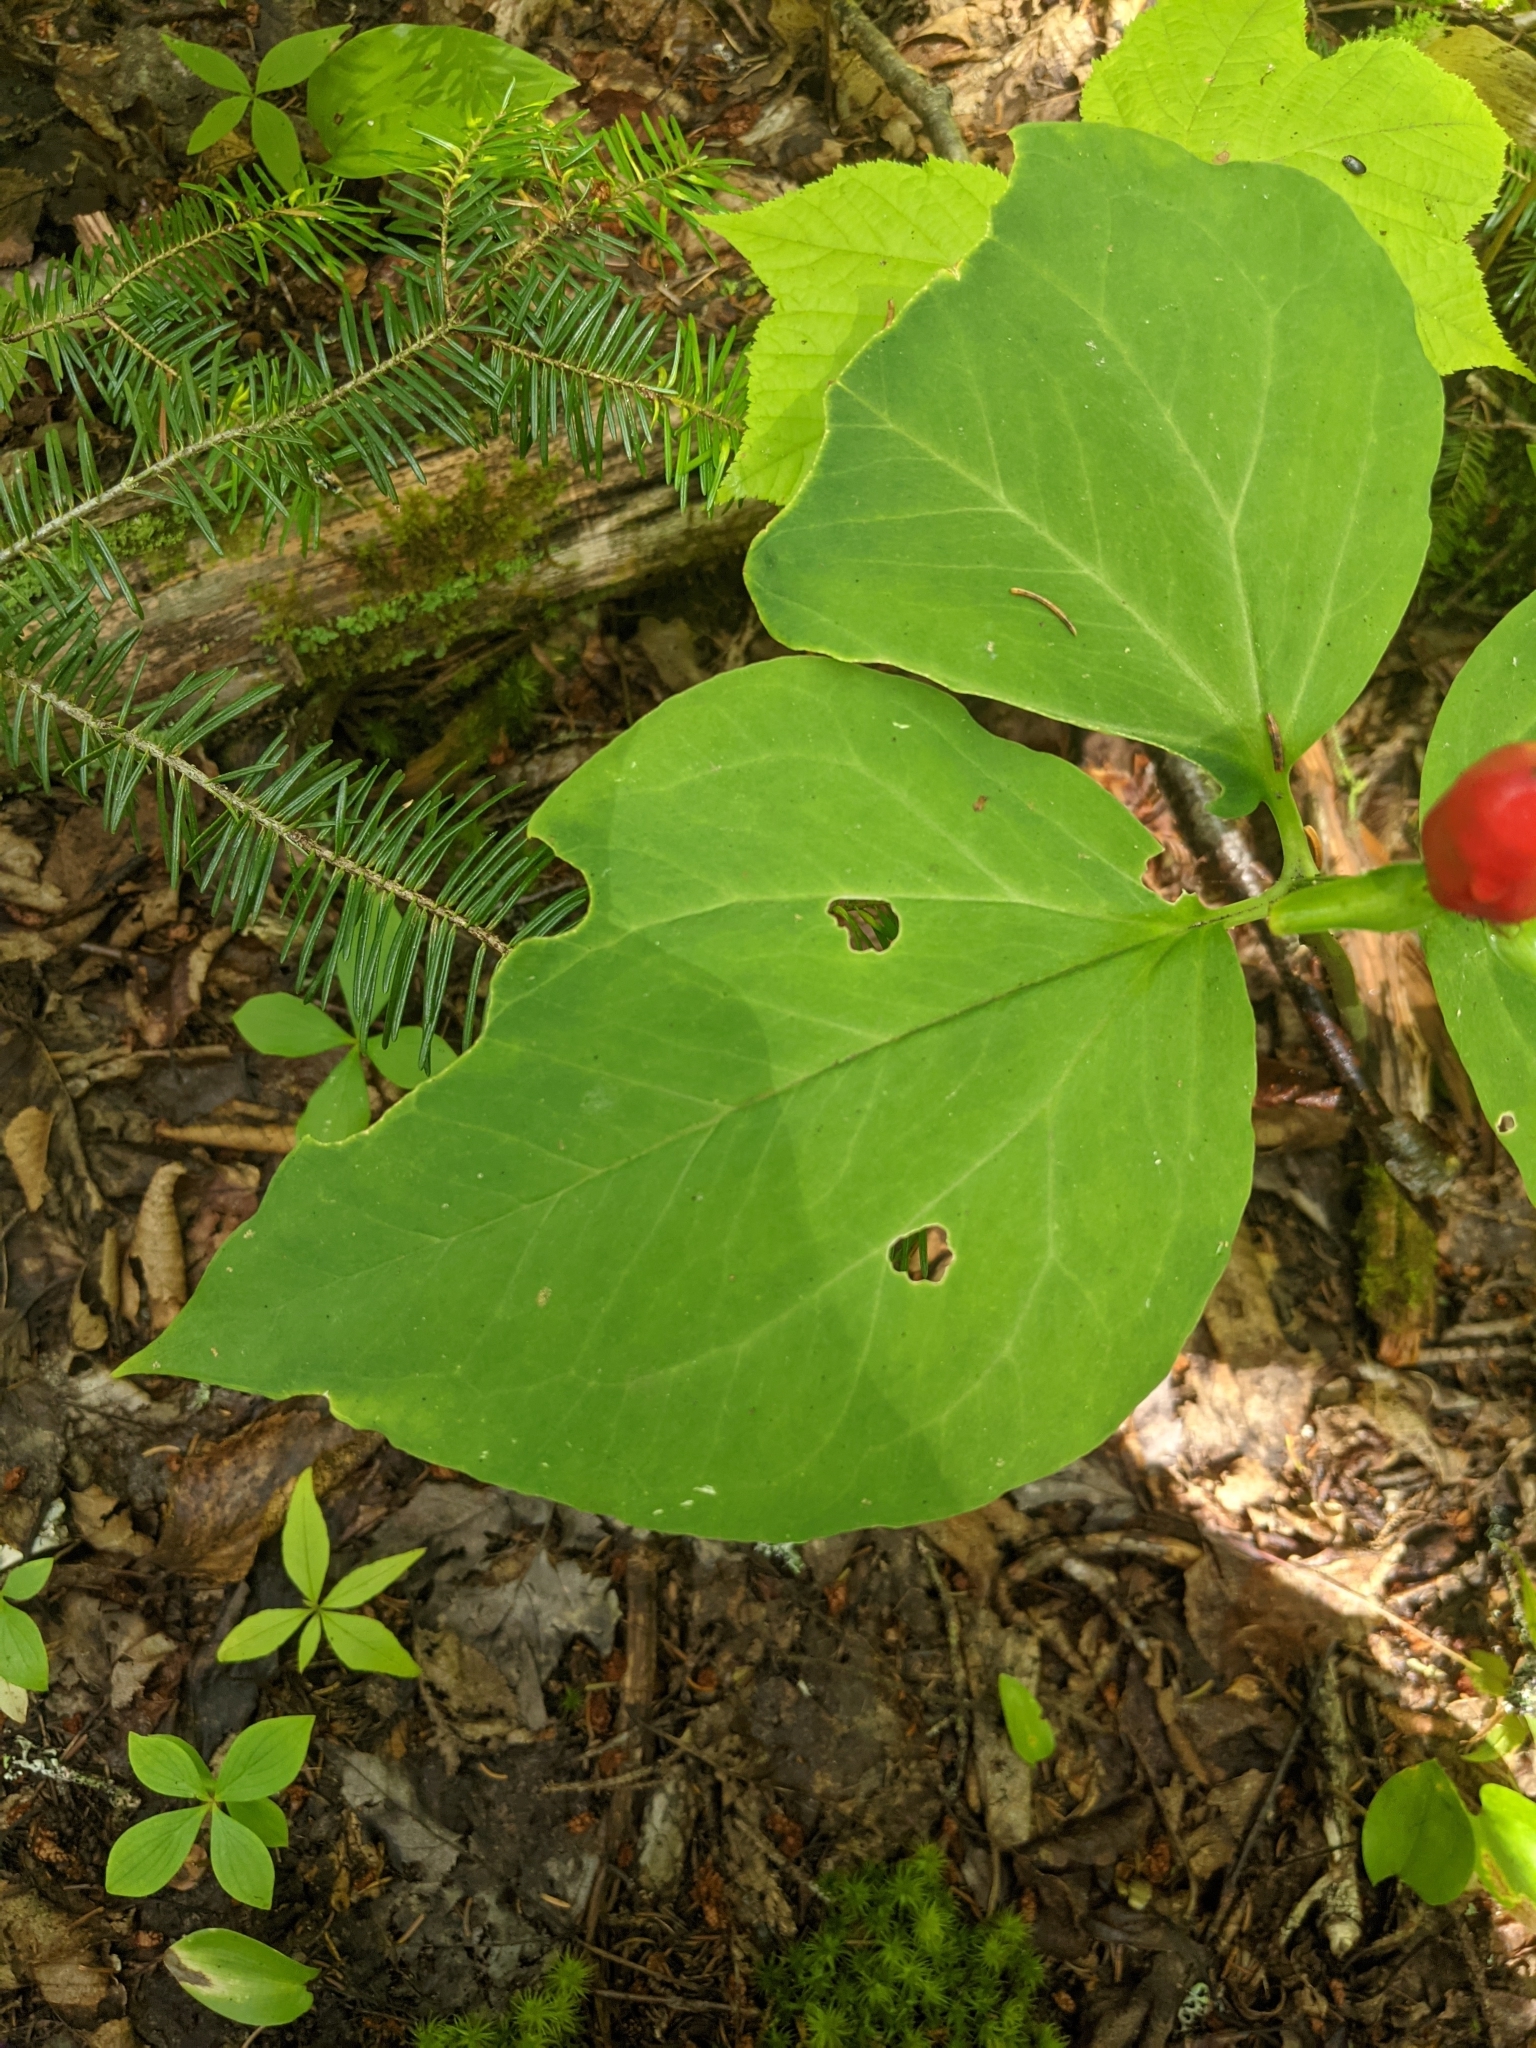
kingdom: Plantae
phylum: Tracheophyta
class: Liliopsida
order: Liliales
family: Melanthiaceae
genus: Trillium
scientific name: Trillium undulatum
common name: Paint trillium
